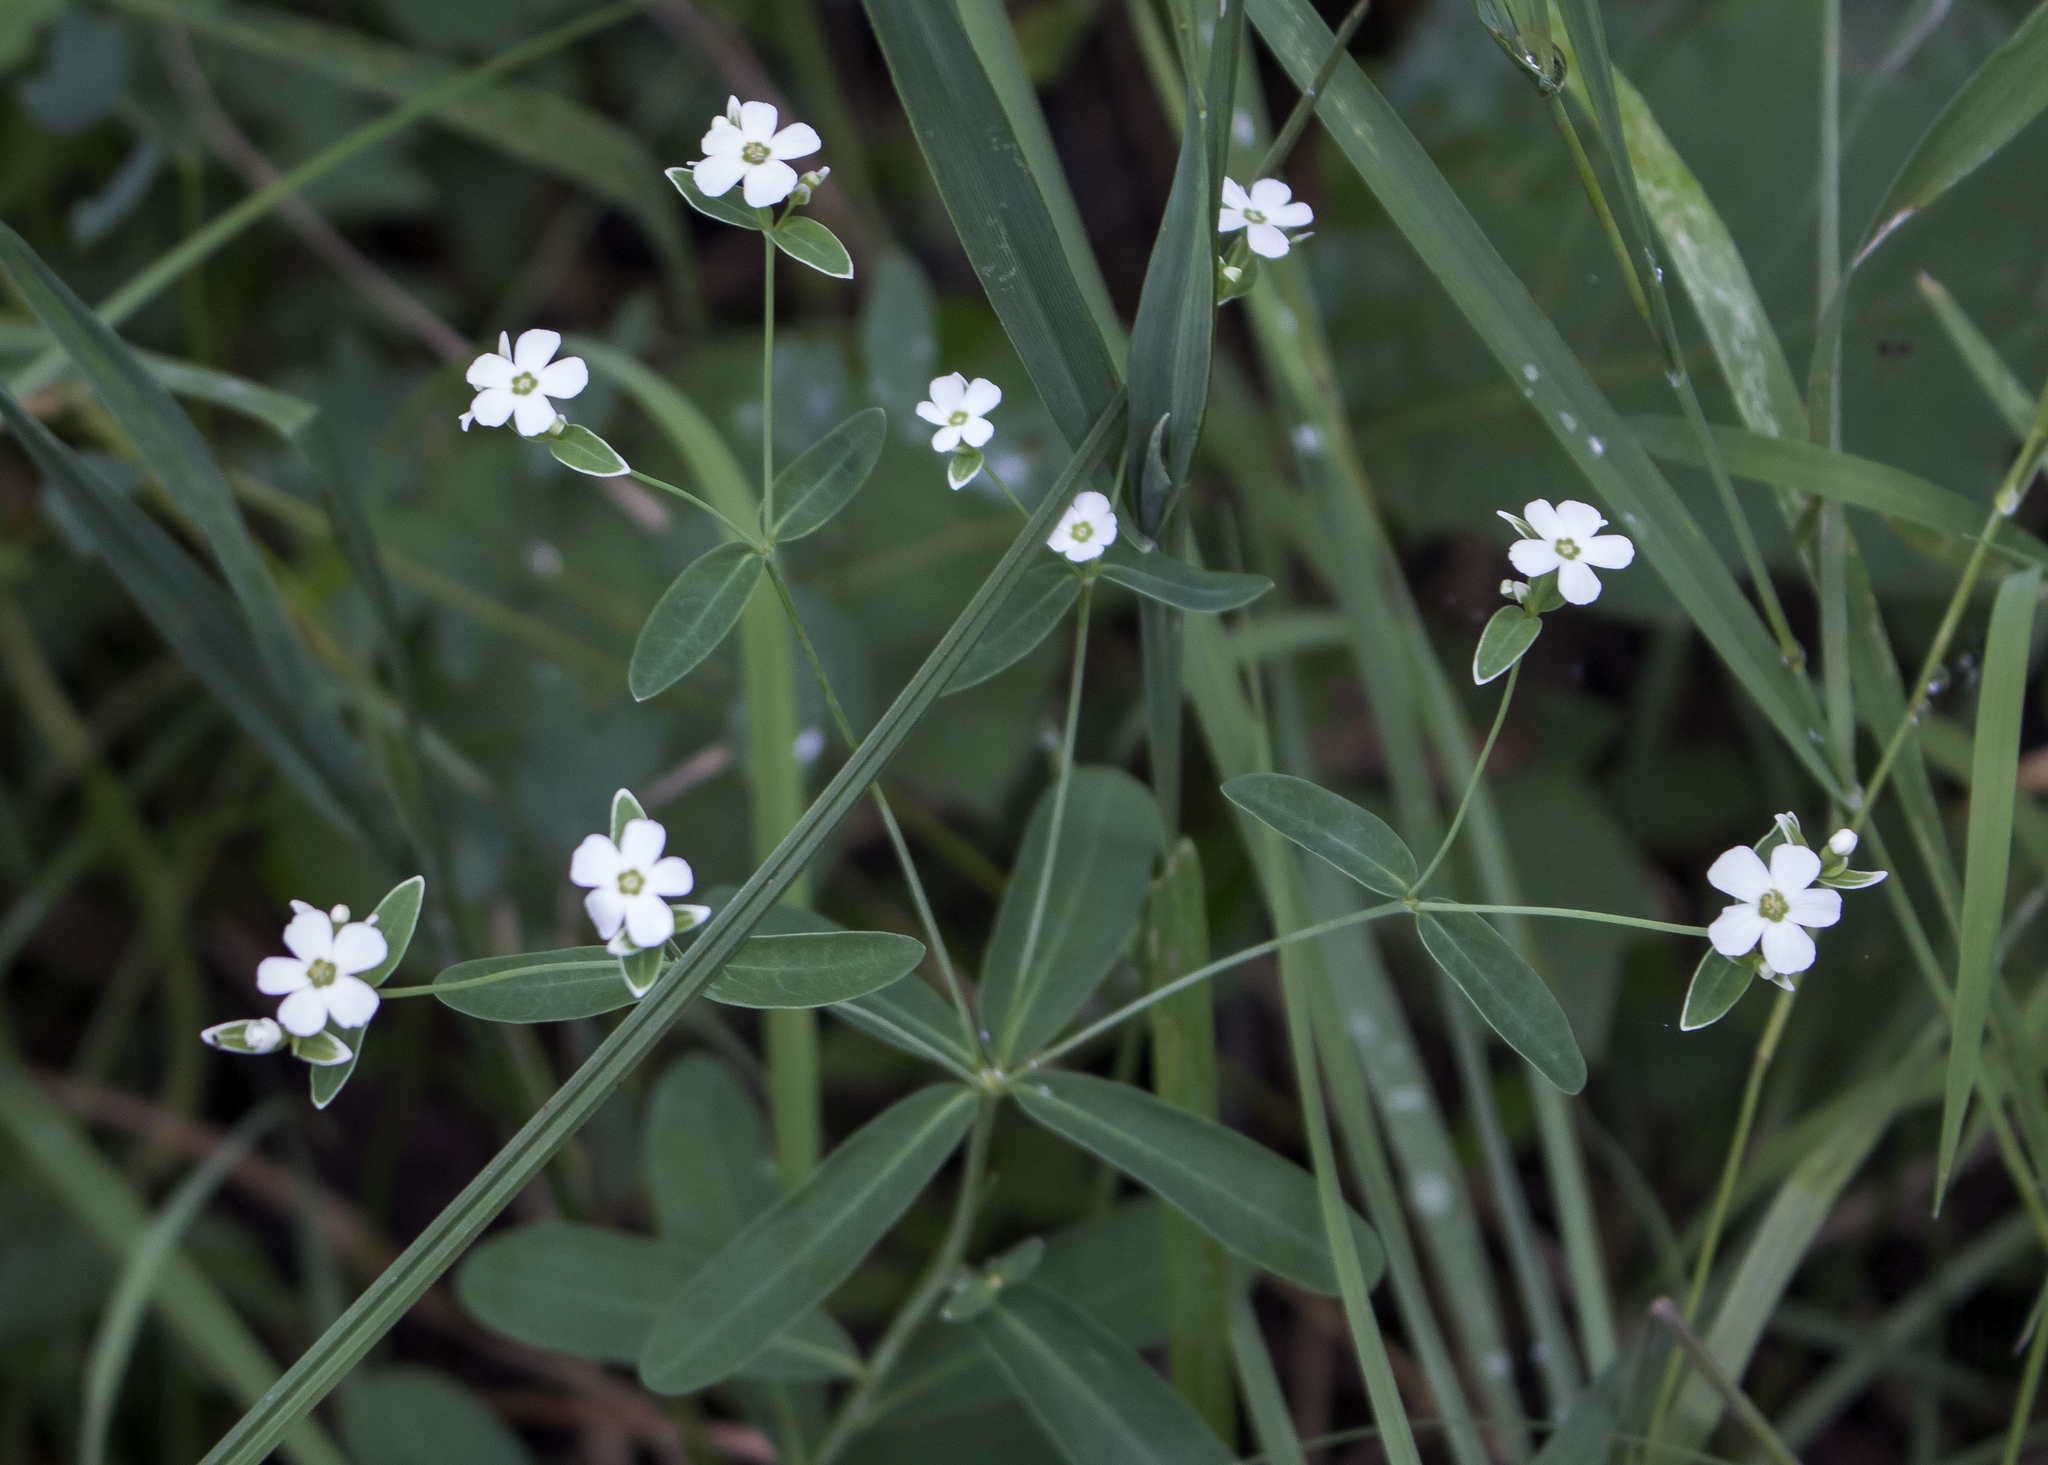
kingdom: Plantae
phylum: Tracheophyta
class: Magnoliopsida
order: Malpighiales
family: Euphorbiaceae
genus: Euphorbia
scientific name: Euphorbia corollata
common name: Flowering spurge
